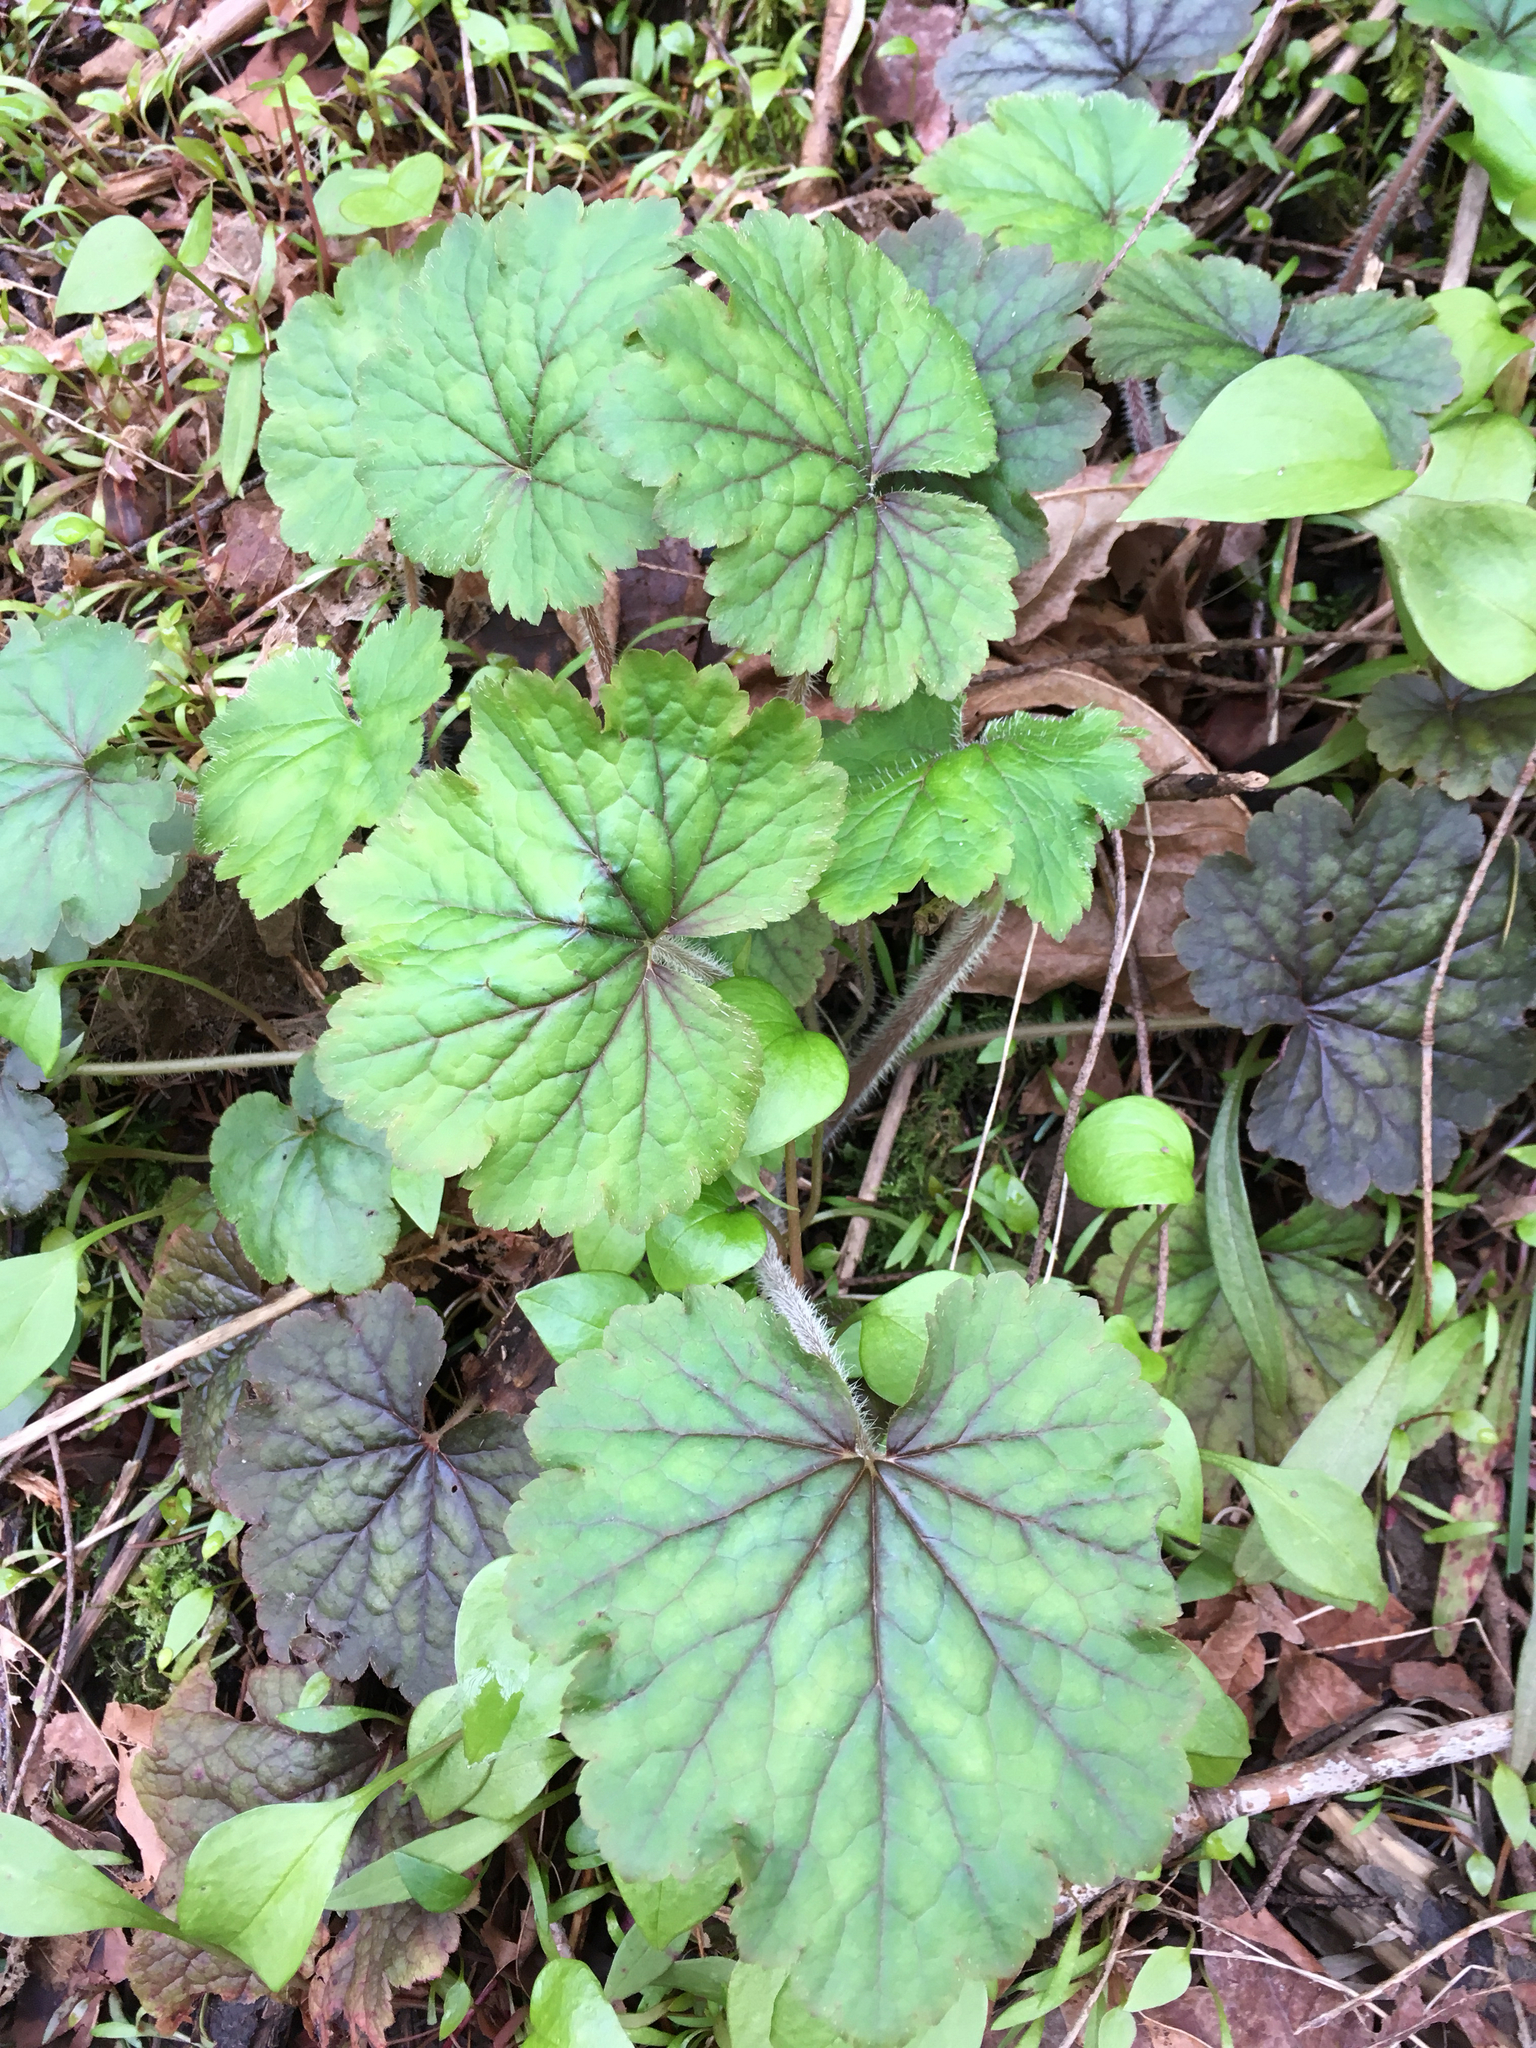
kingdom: Plantae
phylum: Tracheophyta
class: Magnoliopsida
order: Saxifragales
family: Saxifragaceae
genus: Tellima
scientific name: Tellima grandiflora
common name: Fringecups
